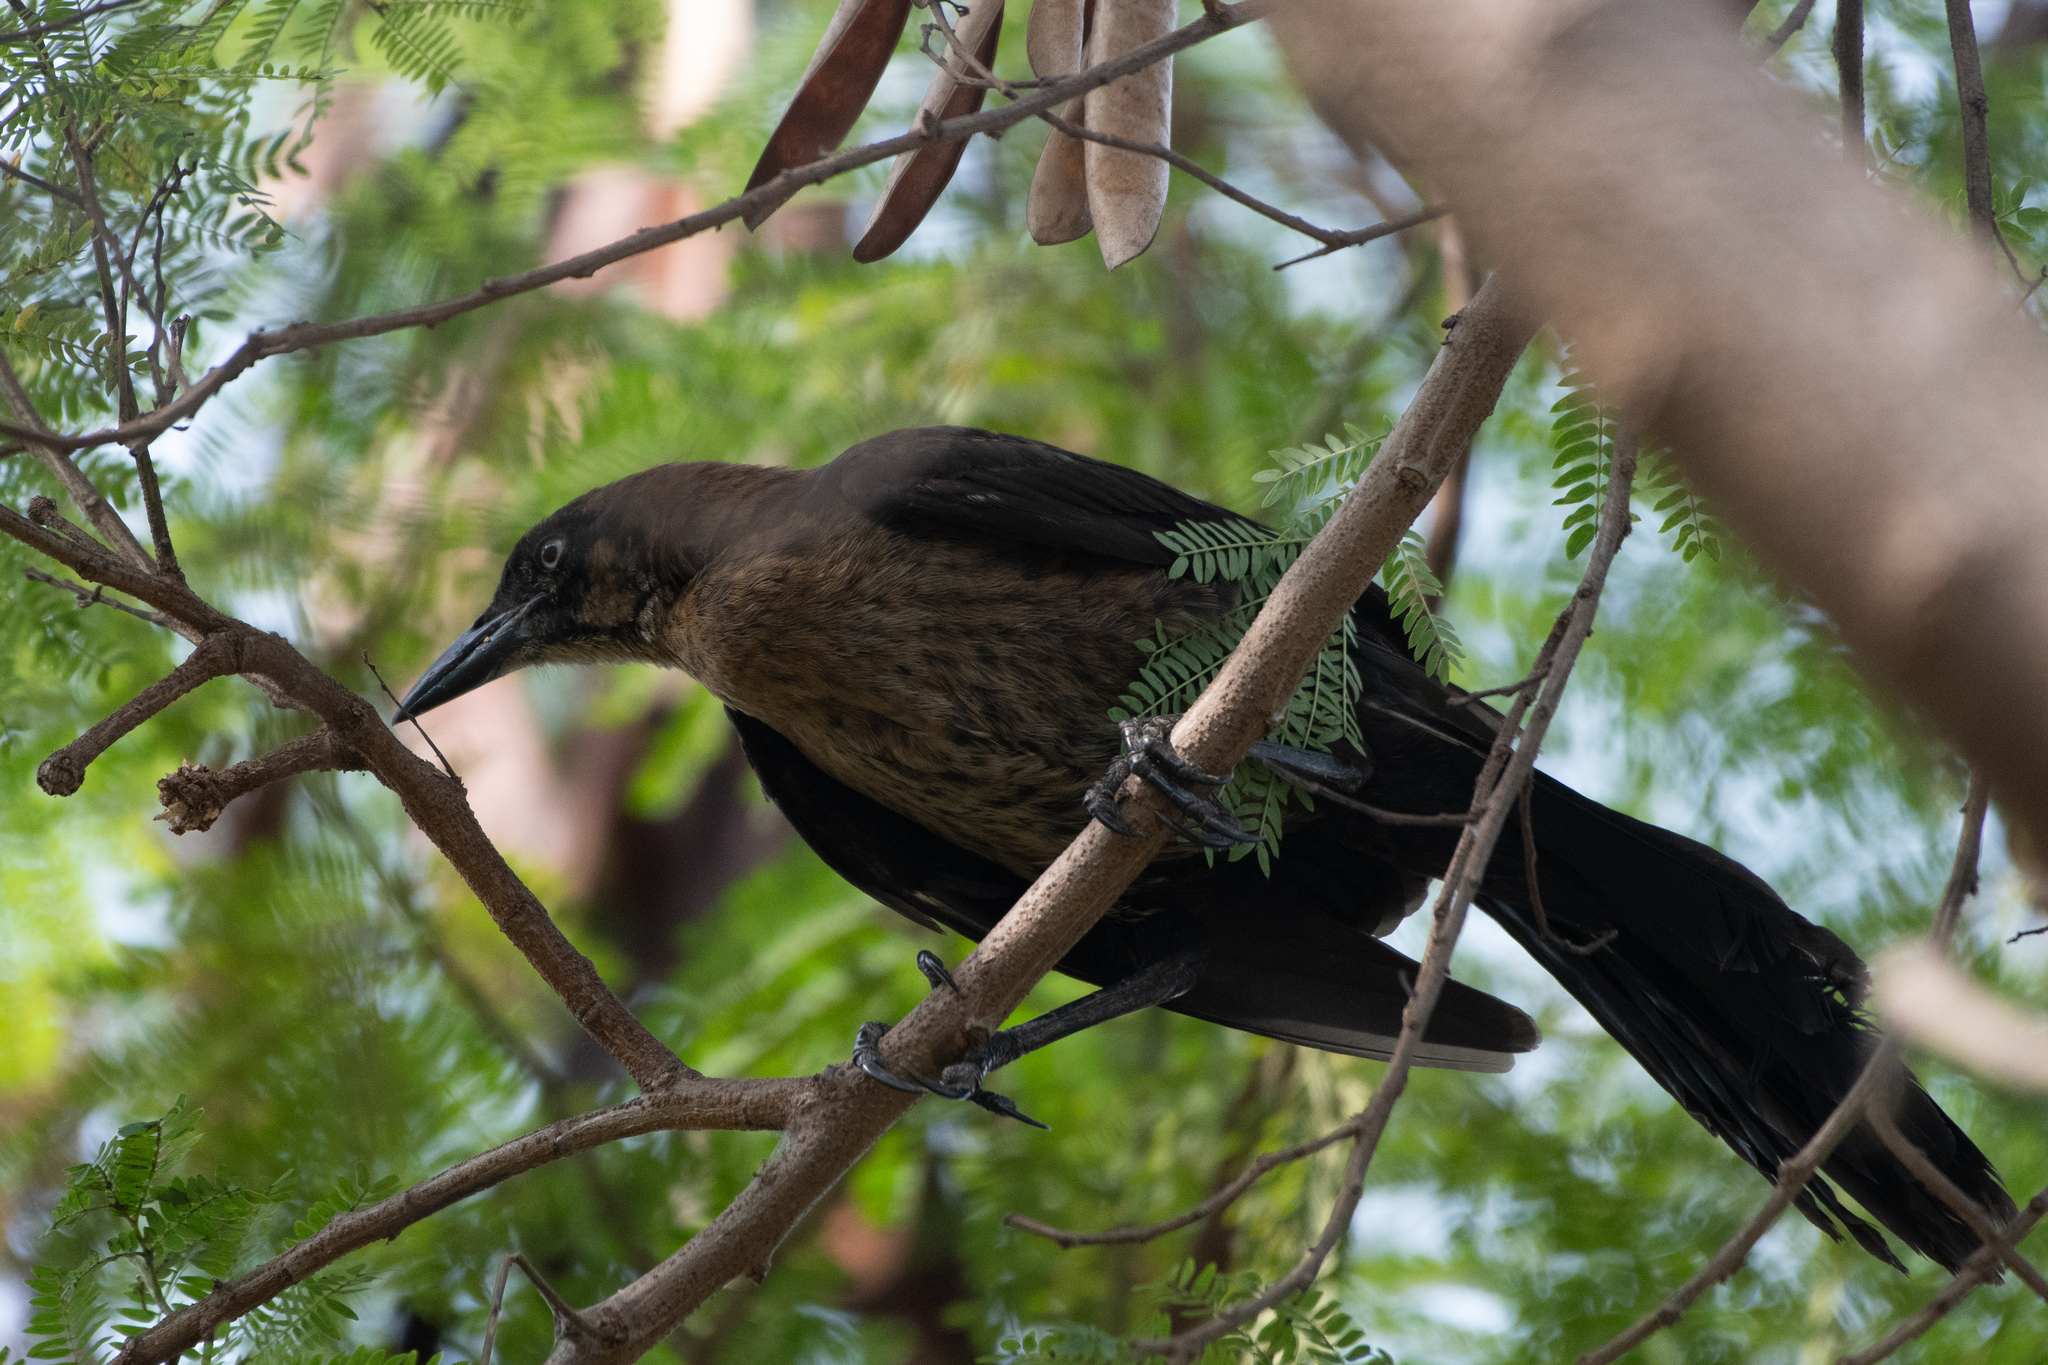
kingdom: Animalia
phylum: Chordata
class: Aves
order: Passeriformes
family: Icteridae
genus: Quiscalus
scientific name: Quiscalus mexicanus
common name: Great-tailed grackle
